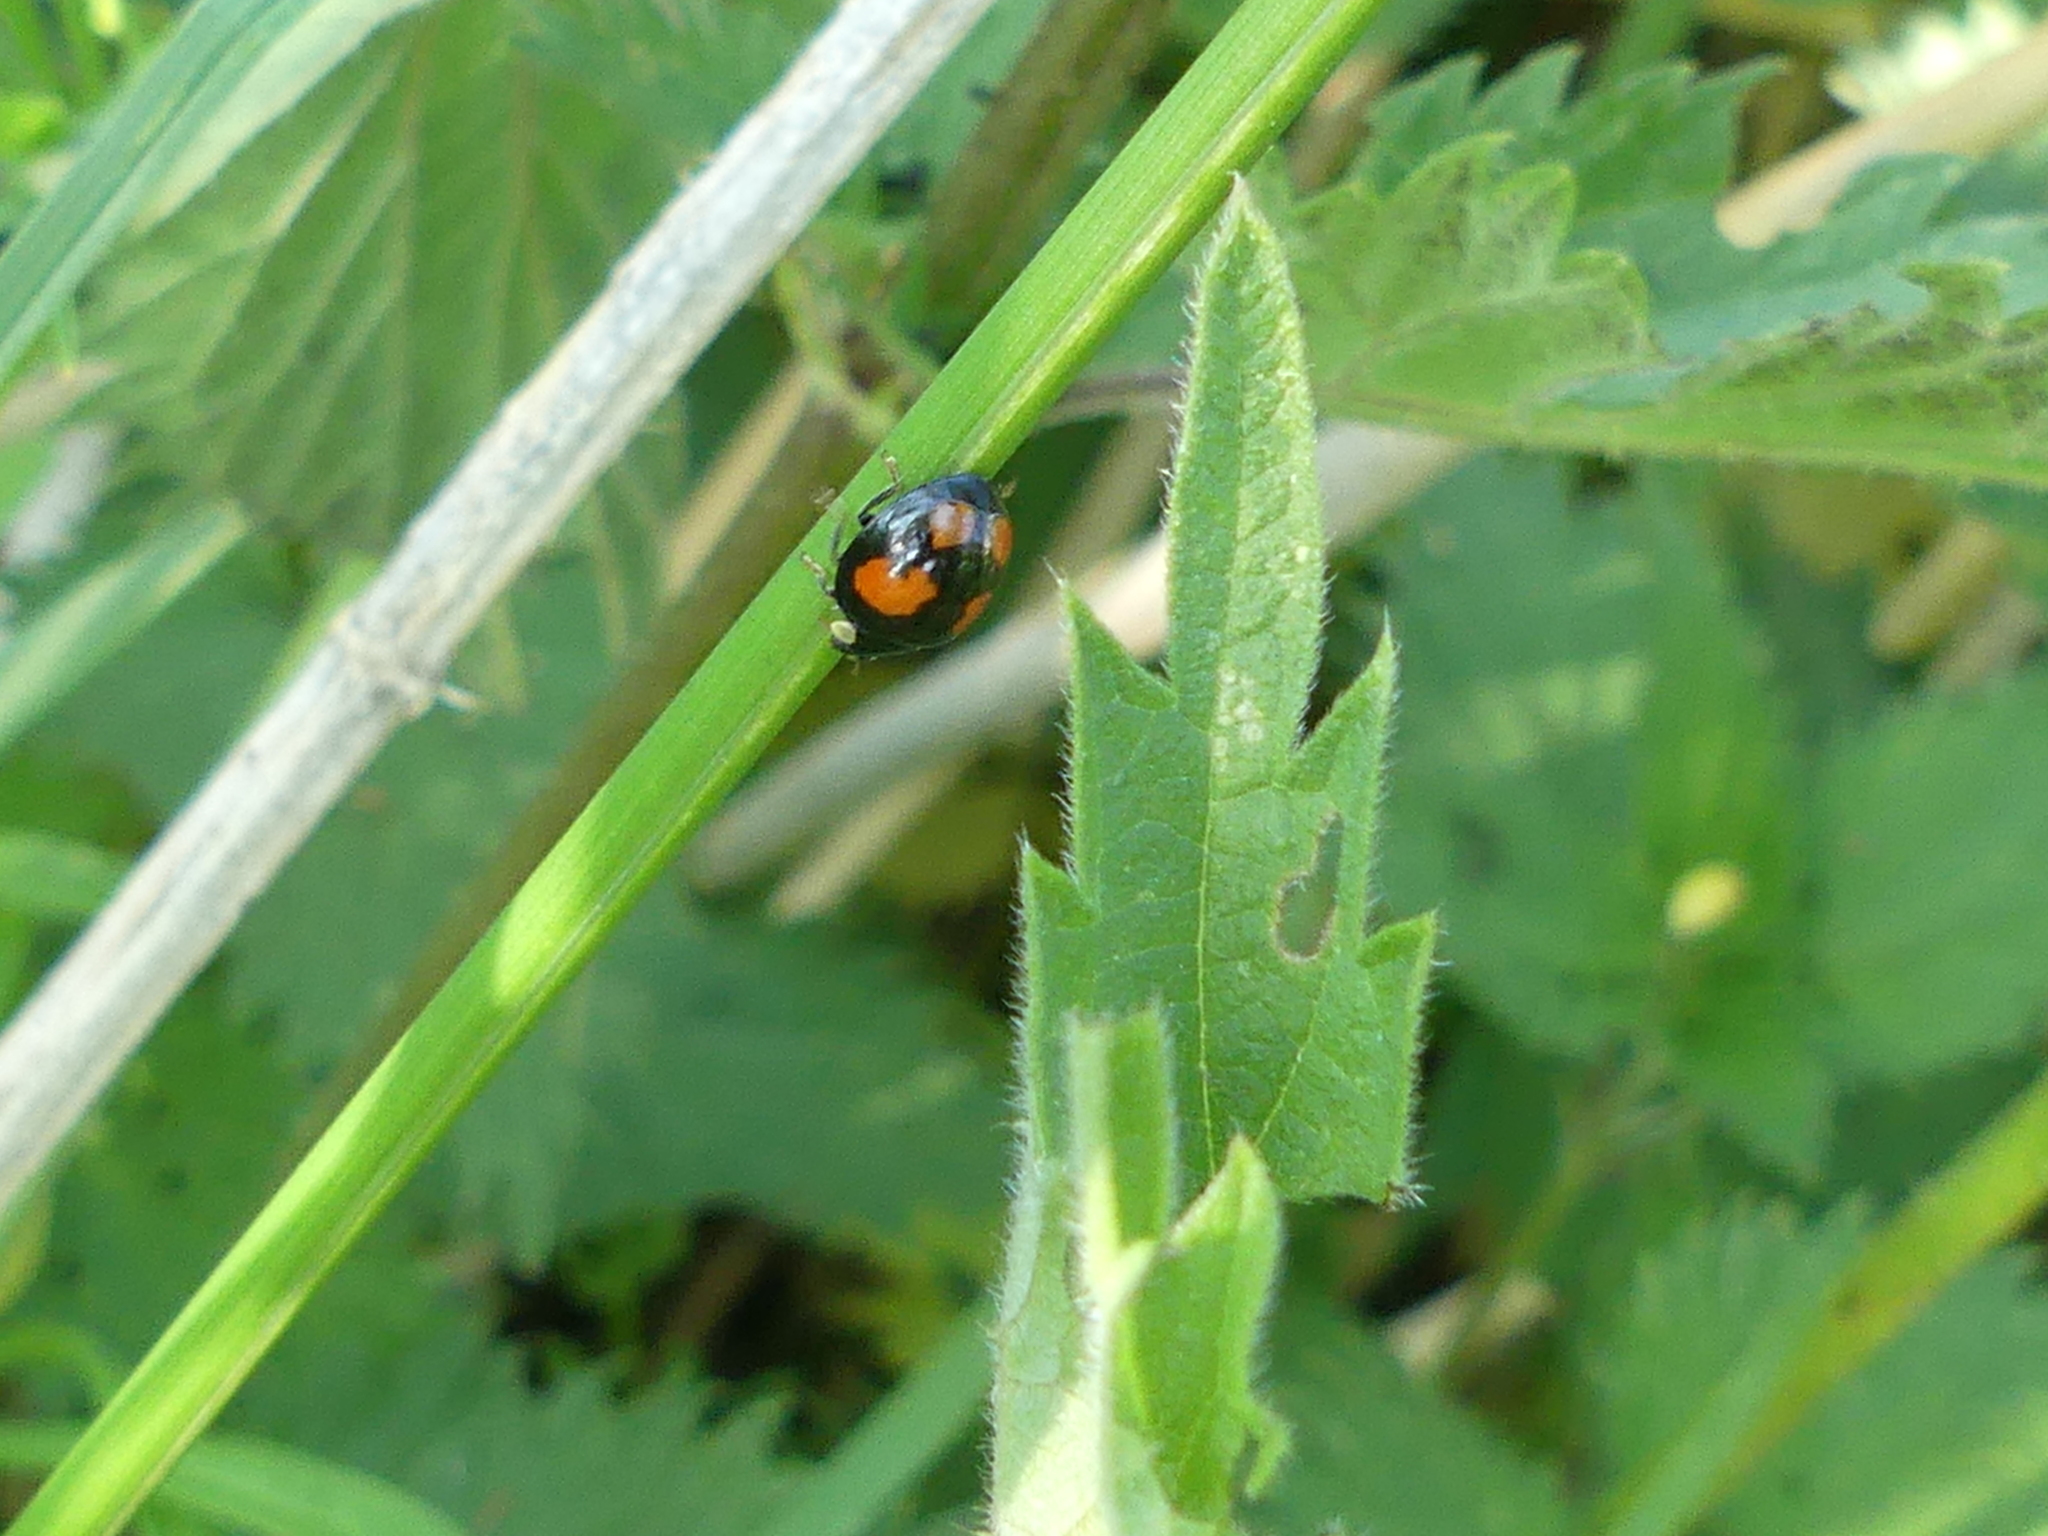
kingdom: Animalia
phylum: Arthropoda
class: Insecta
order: Coleoptera
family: Coccinellidae
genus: Harmonia
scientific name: Harmonia axyridis
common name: Harlequin ladybird
